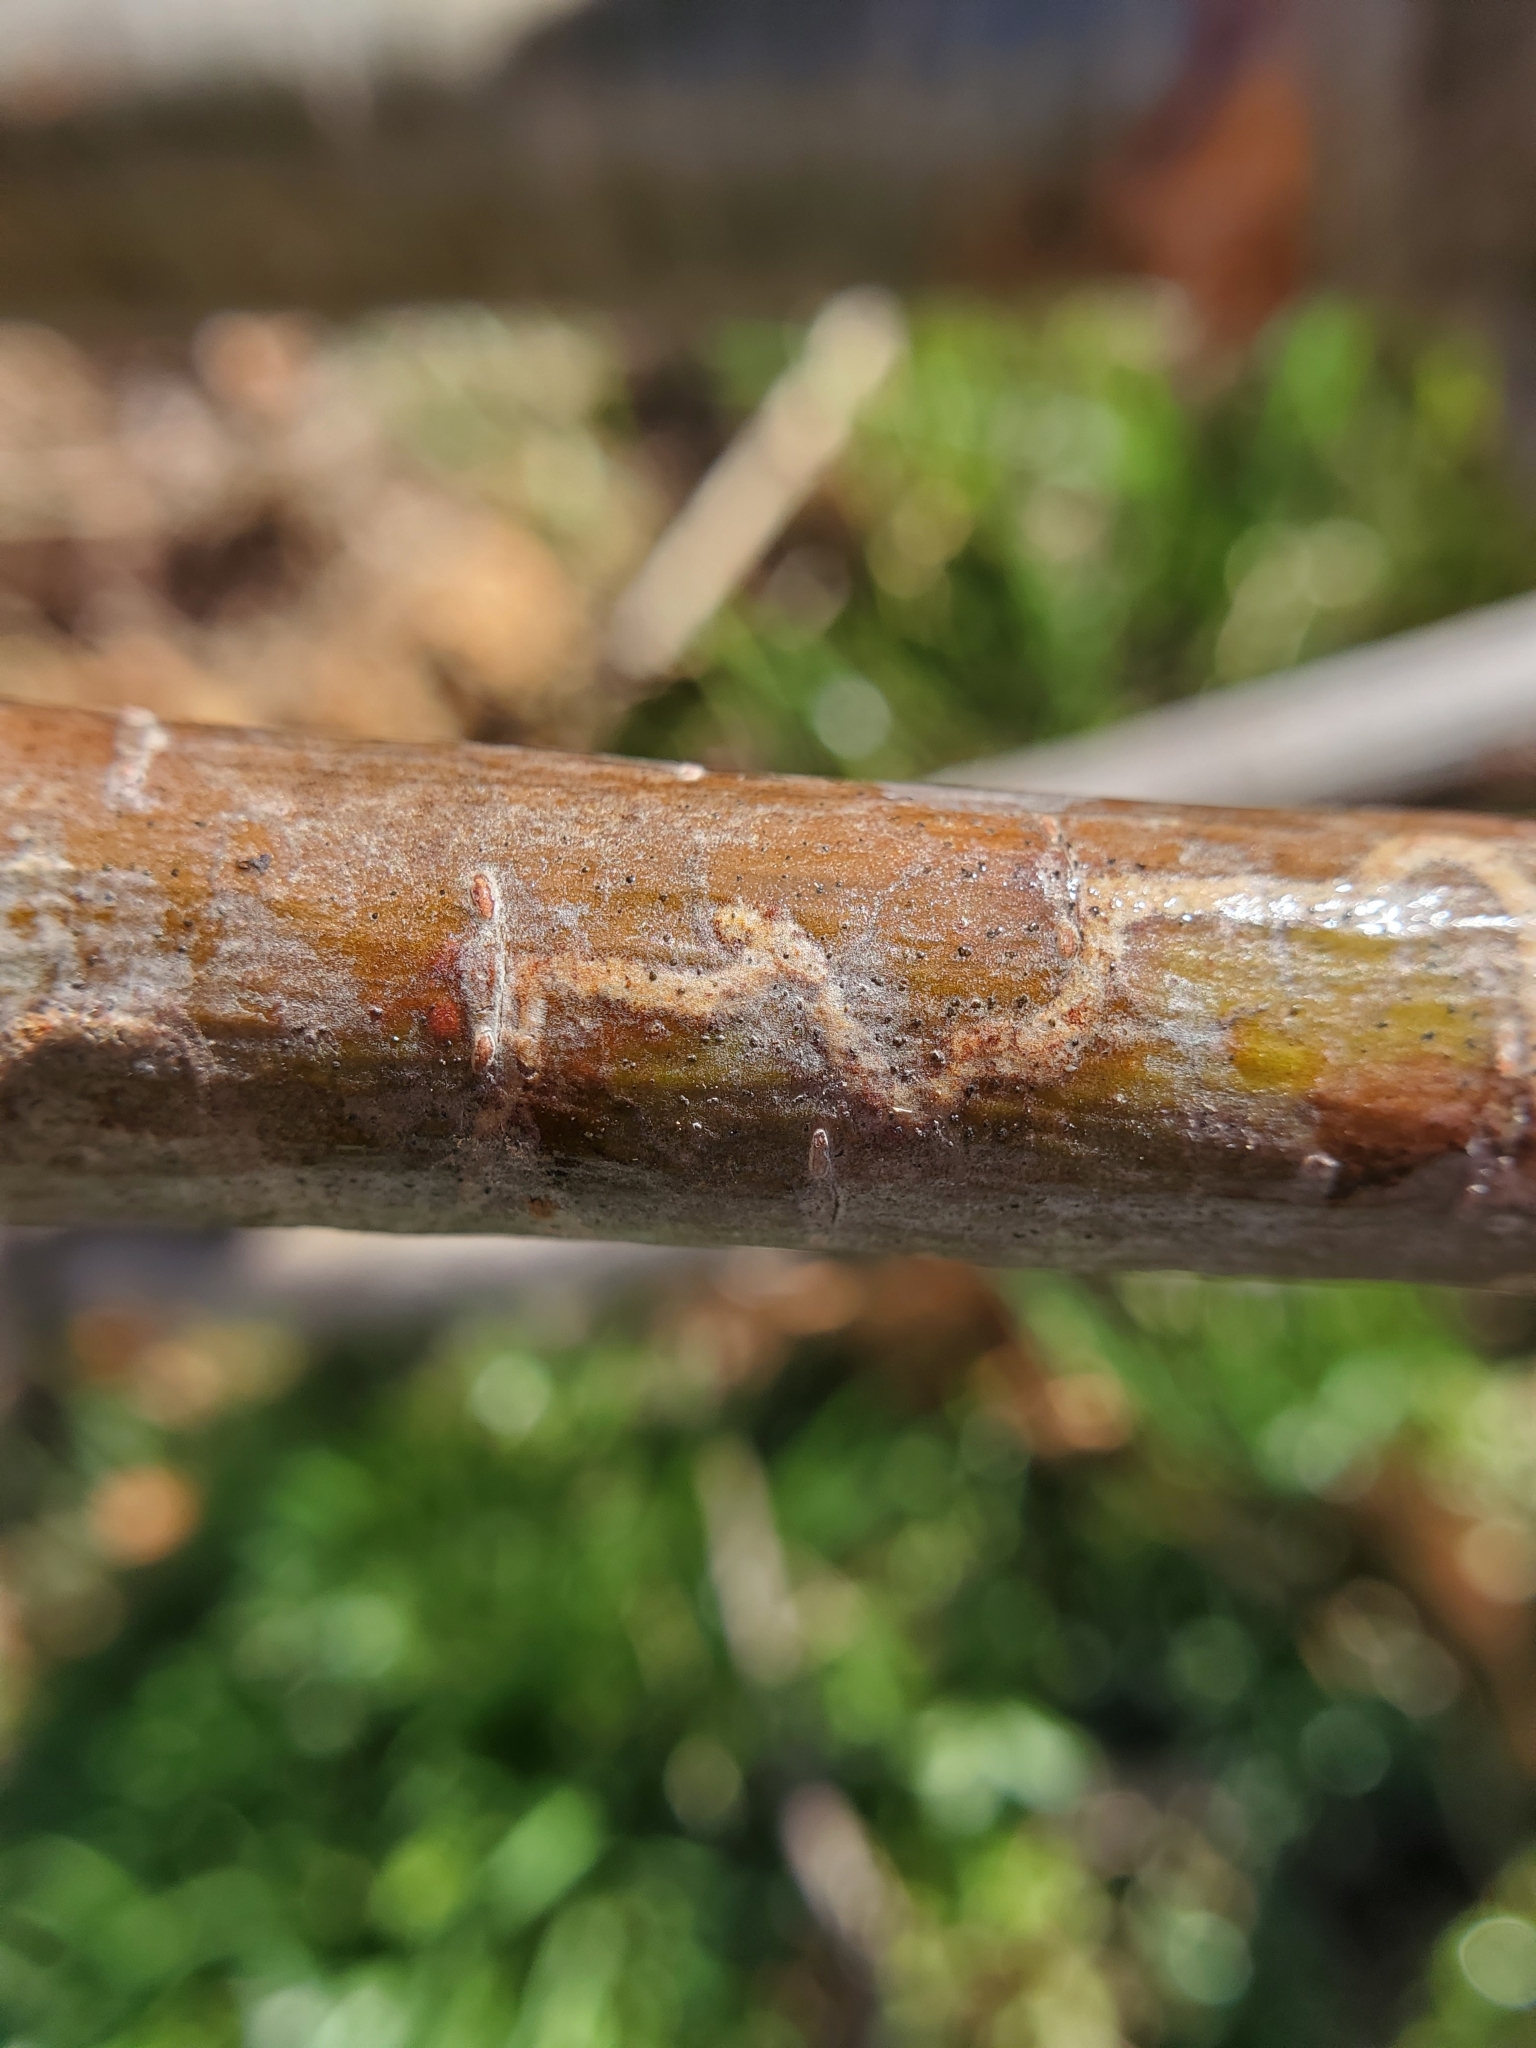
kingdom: Animalia
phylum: Arthropoda
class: Insecta
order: Lepidoptera
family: Gracillariidae
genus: Marmara
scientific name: Marmara fasciella
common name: White pine barkminer moth
